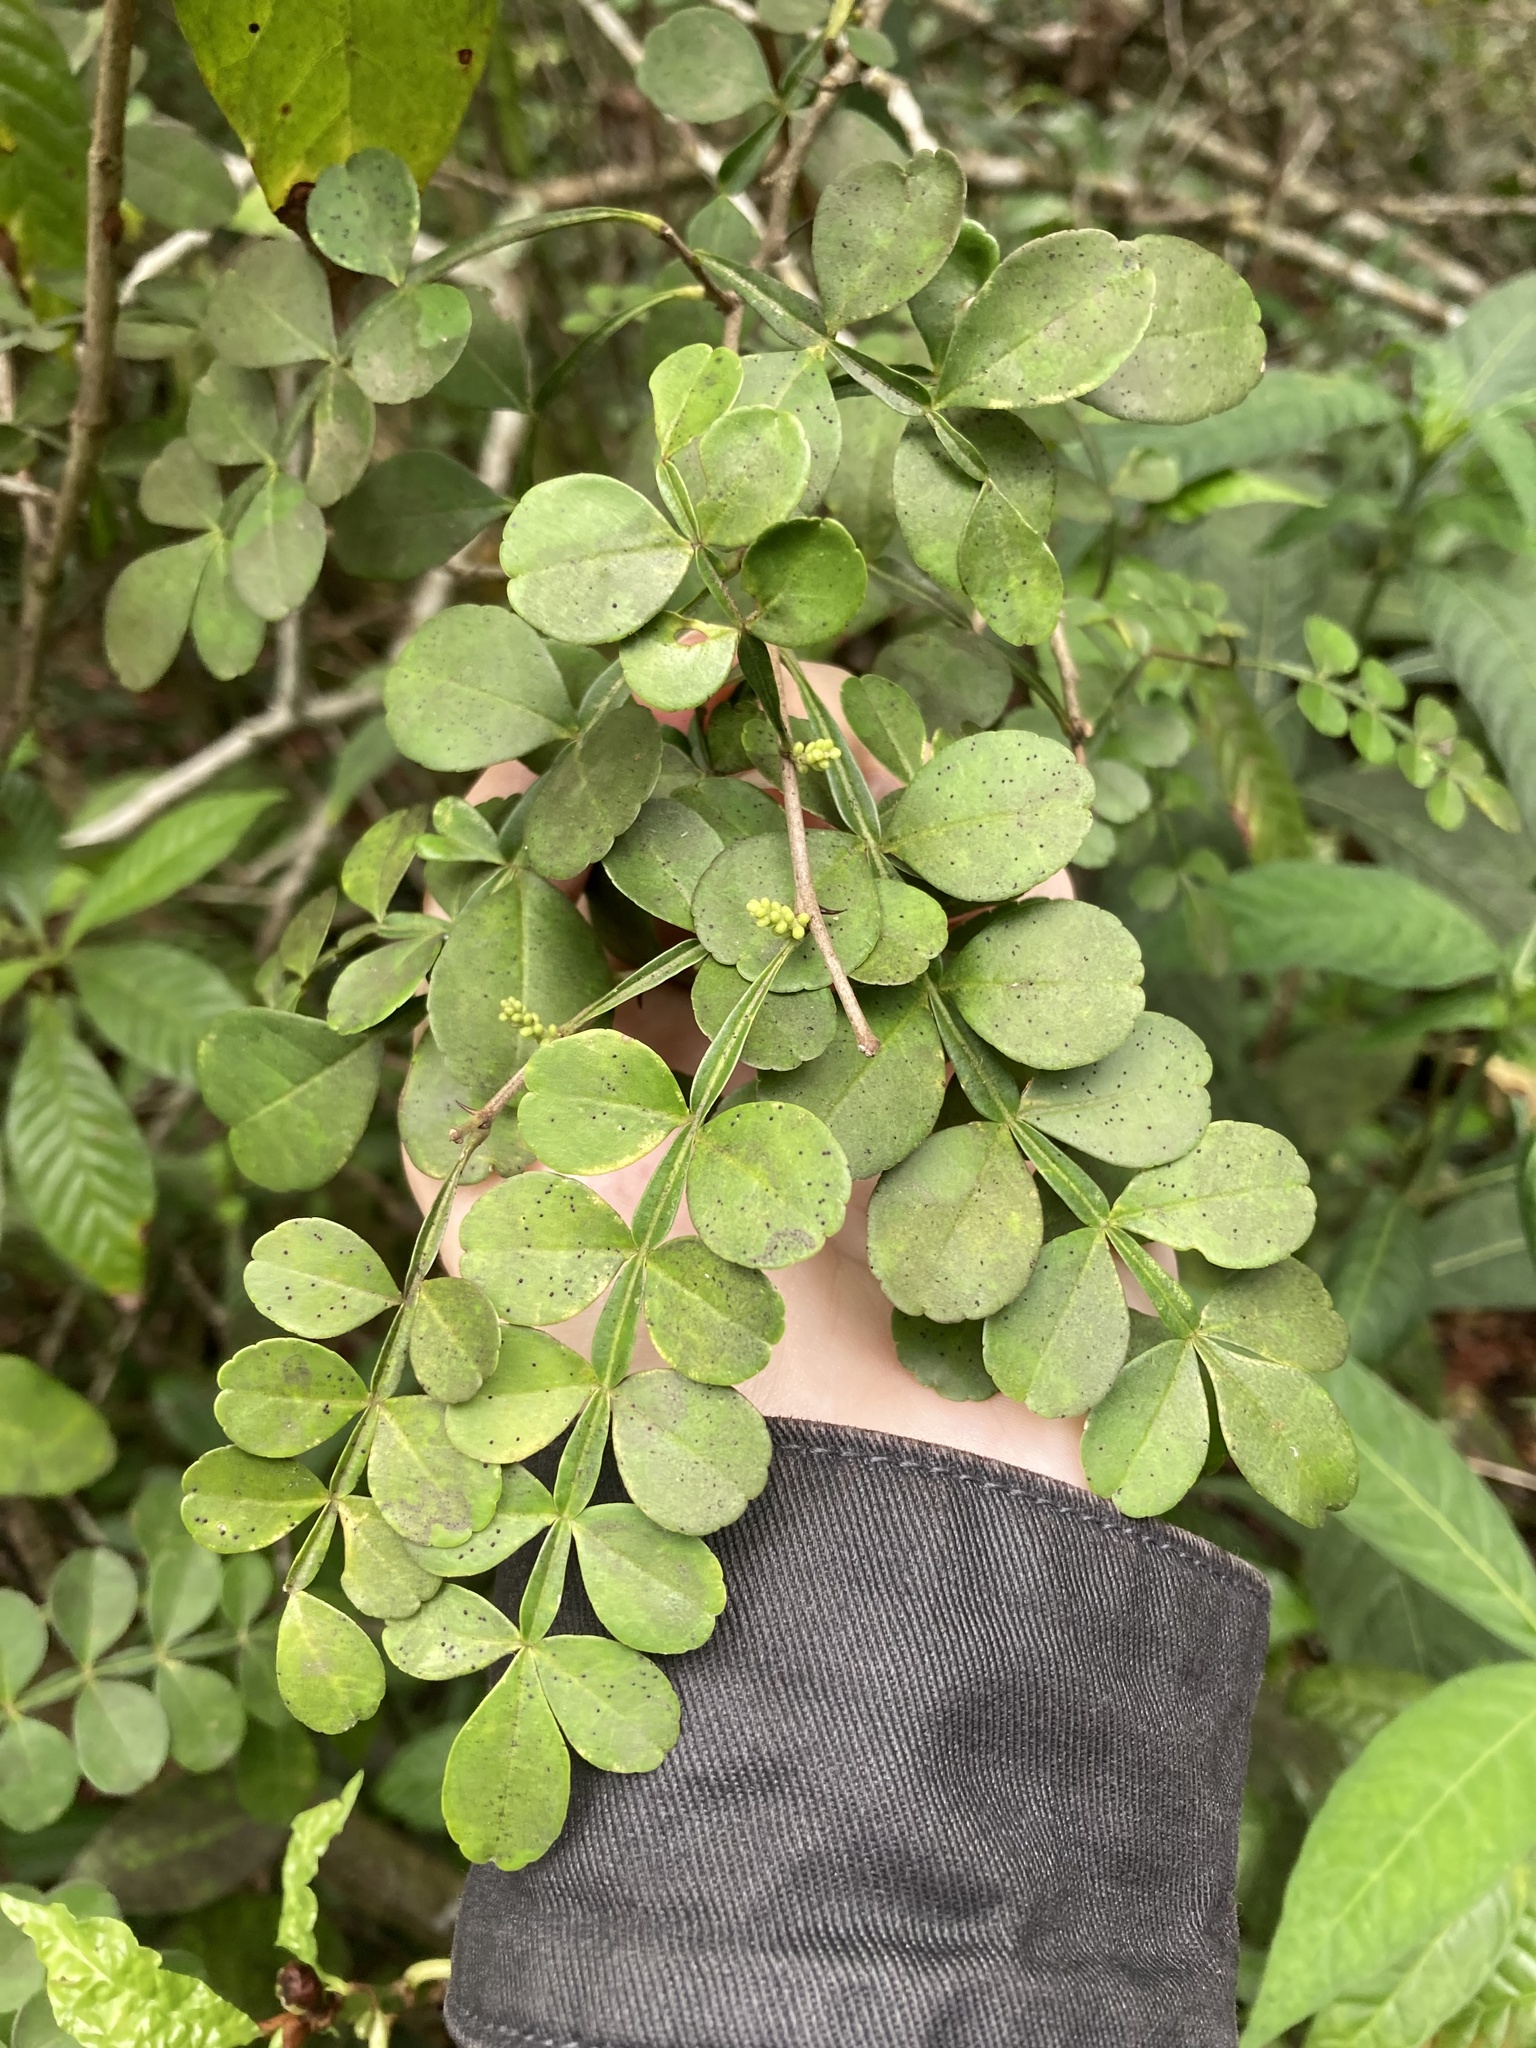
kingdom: Plantae
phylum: Tracheophyta
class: Magnoliopsida
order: Sapindales
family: Rutaceae
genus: Zanthoxylum
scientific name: Zanthoxylum fagara
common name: Lime prickly-ash
